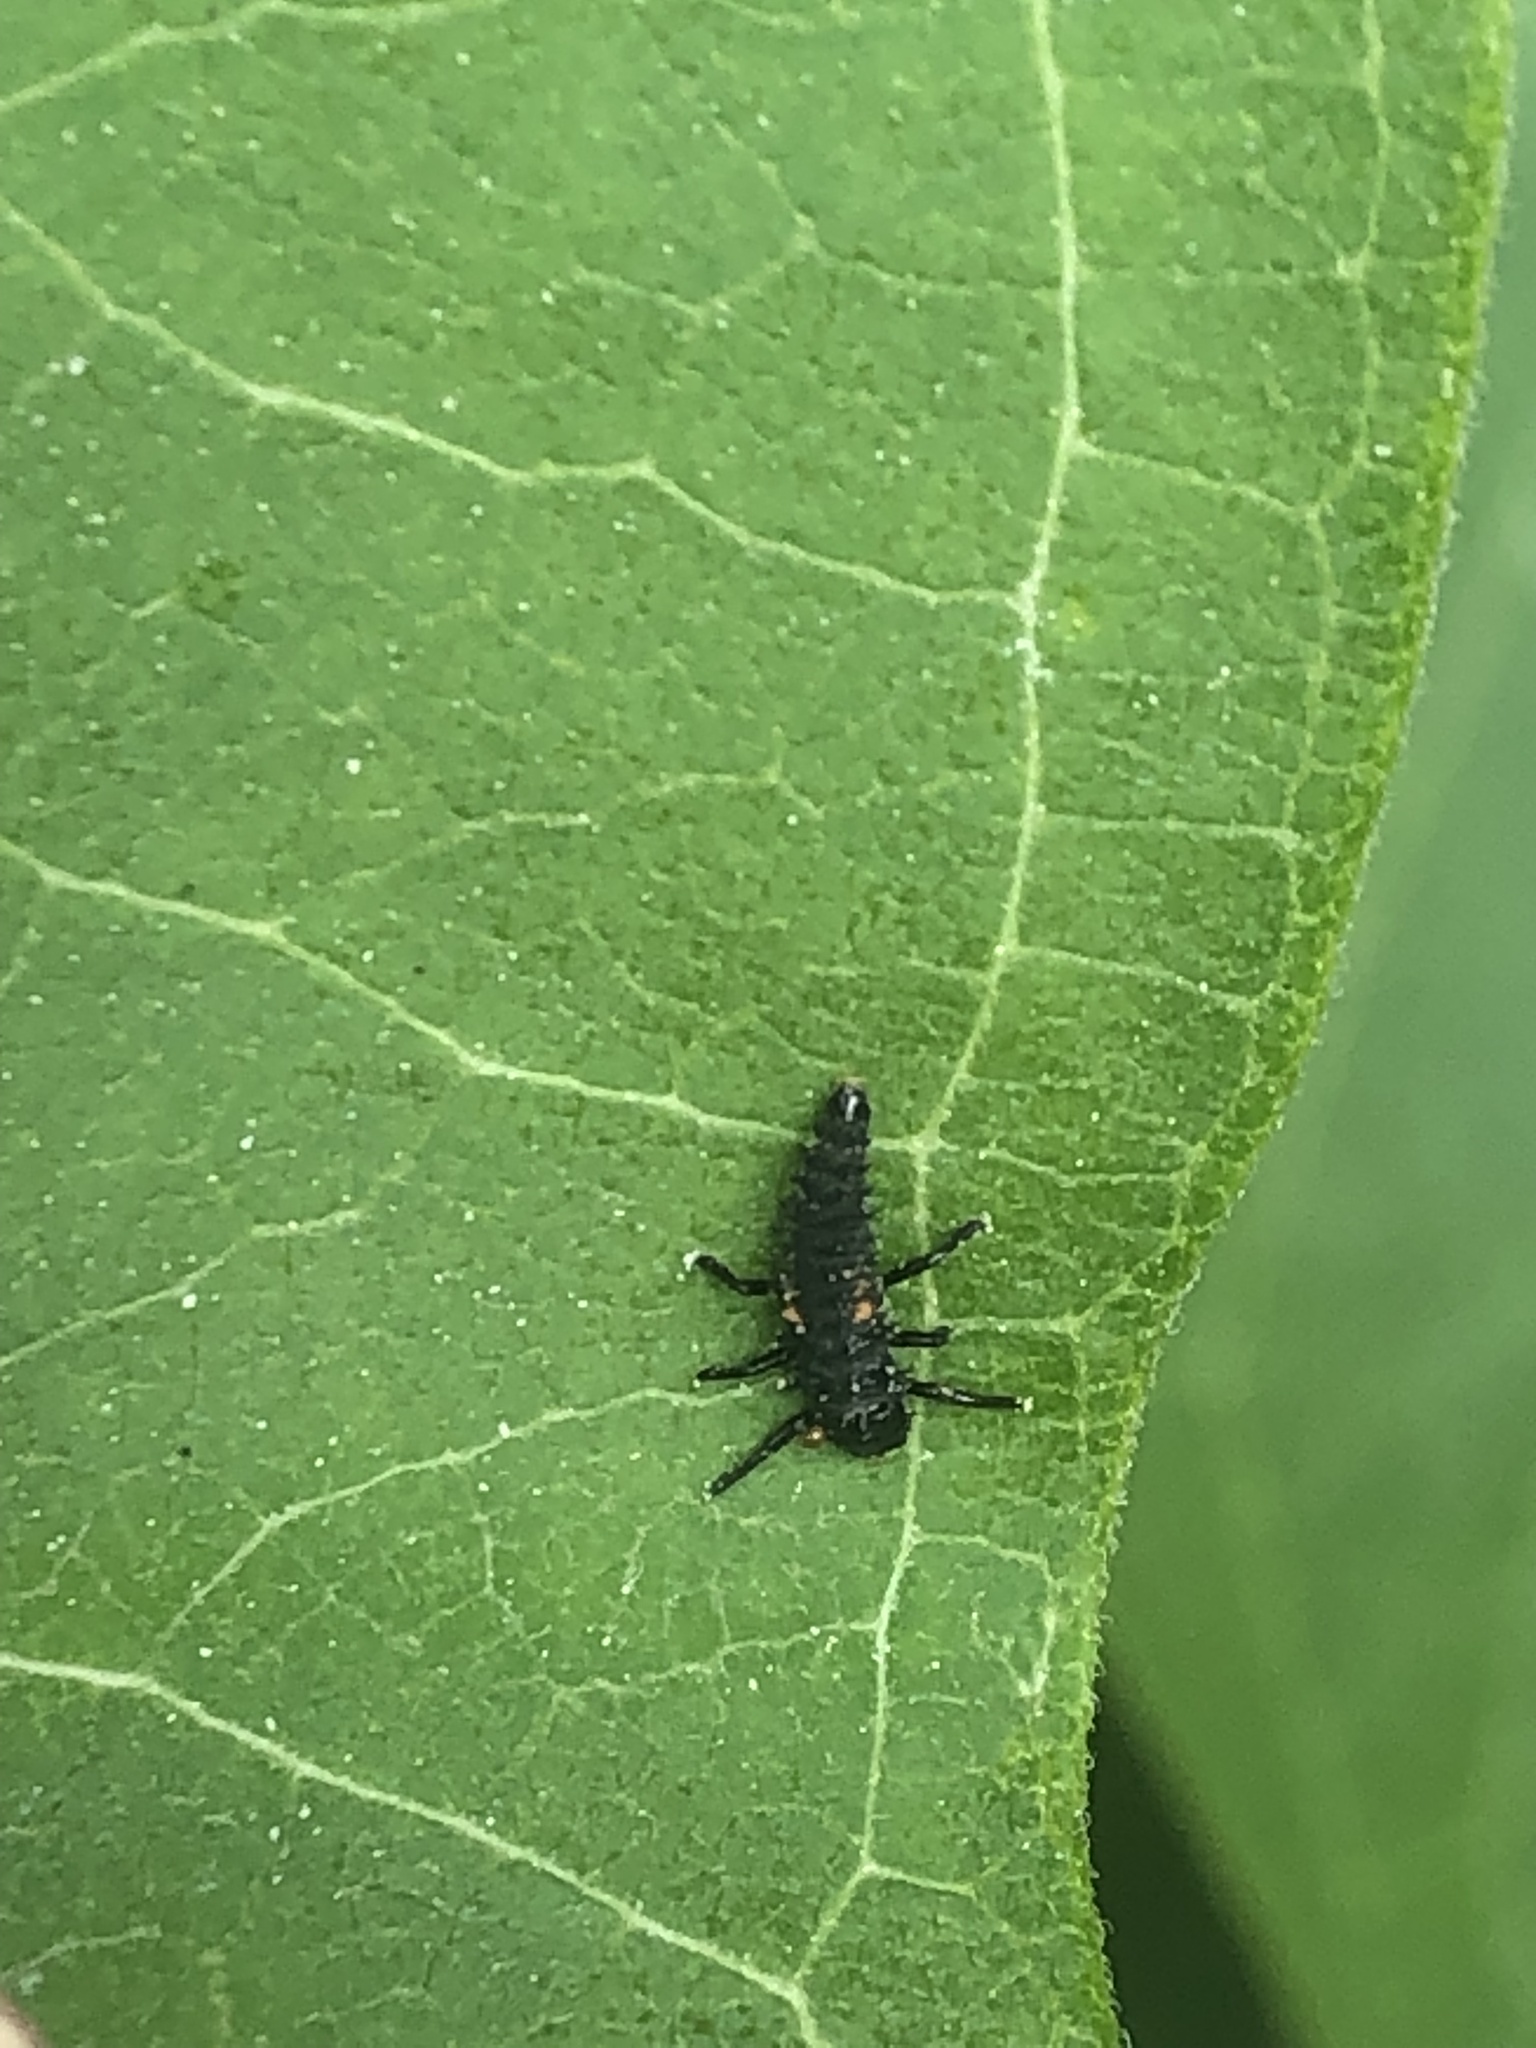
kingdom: Animalia
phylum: Arthropoda
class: Insecta
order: Coleoptera
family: Coccinellidae
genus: Harmonia
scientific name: Harmonia axyridis
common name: Harlequin ladybird
